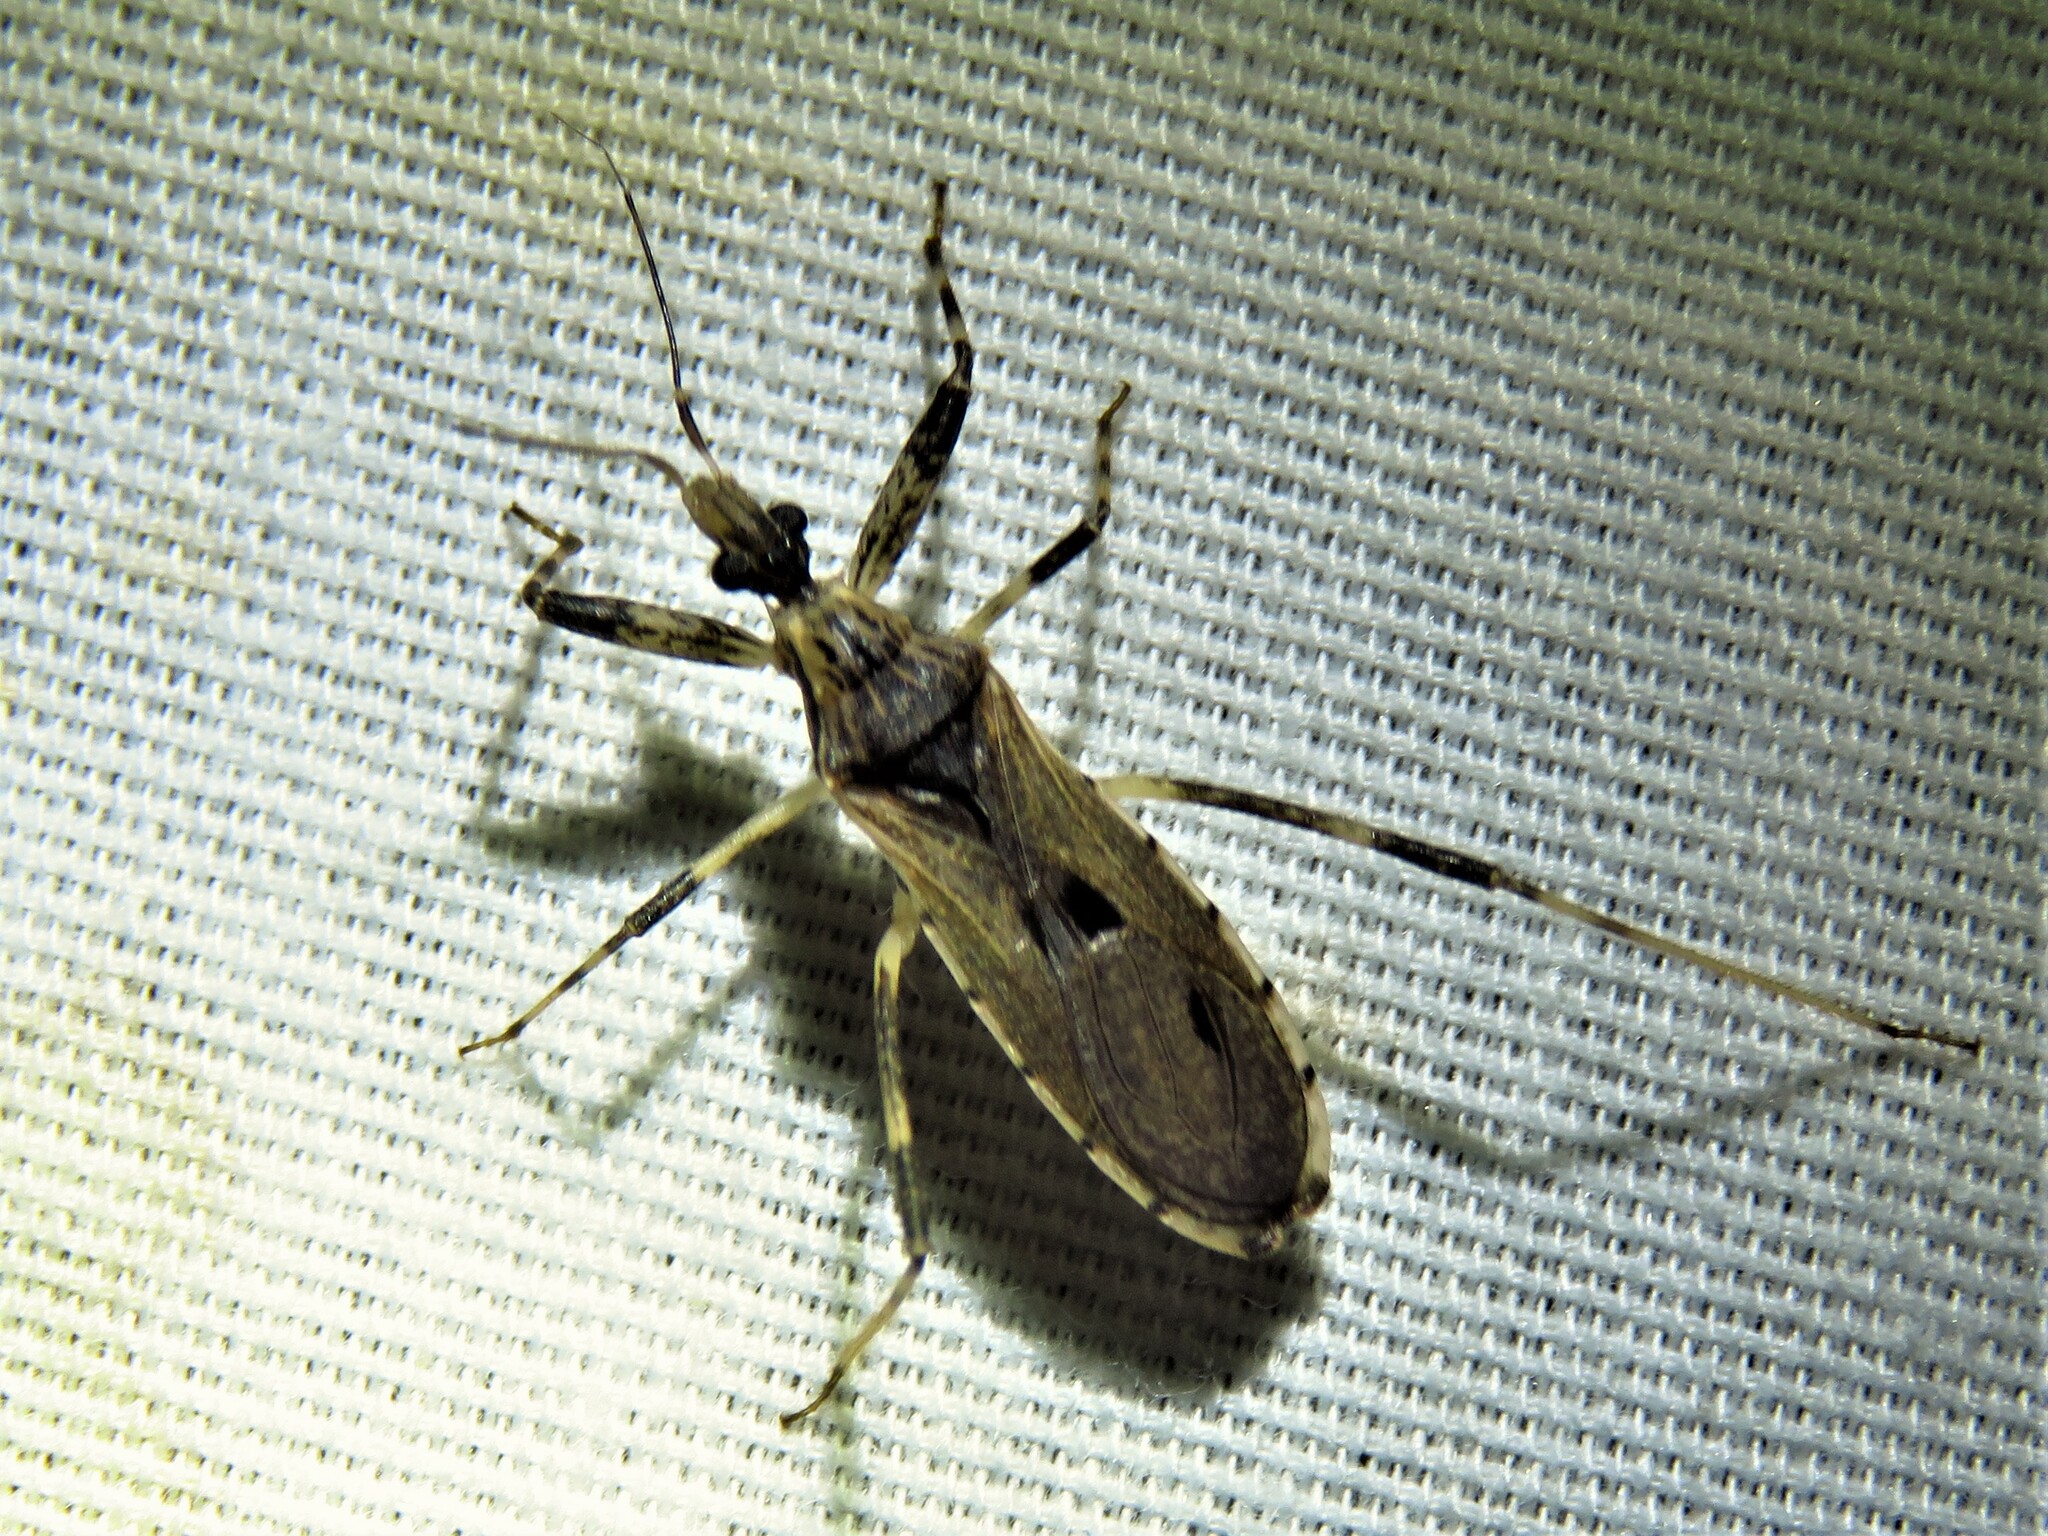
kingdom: Animalia
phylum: Arthropoda
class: Insecta
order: Hemiptera
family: Reduviidae
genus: Oncocephalus
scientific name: Oncocephalus geniculatus
